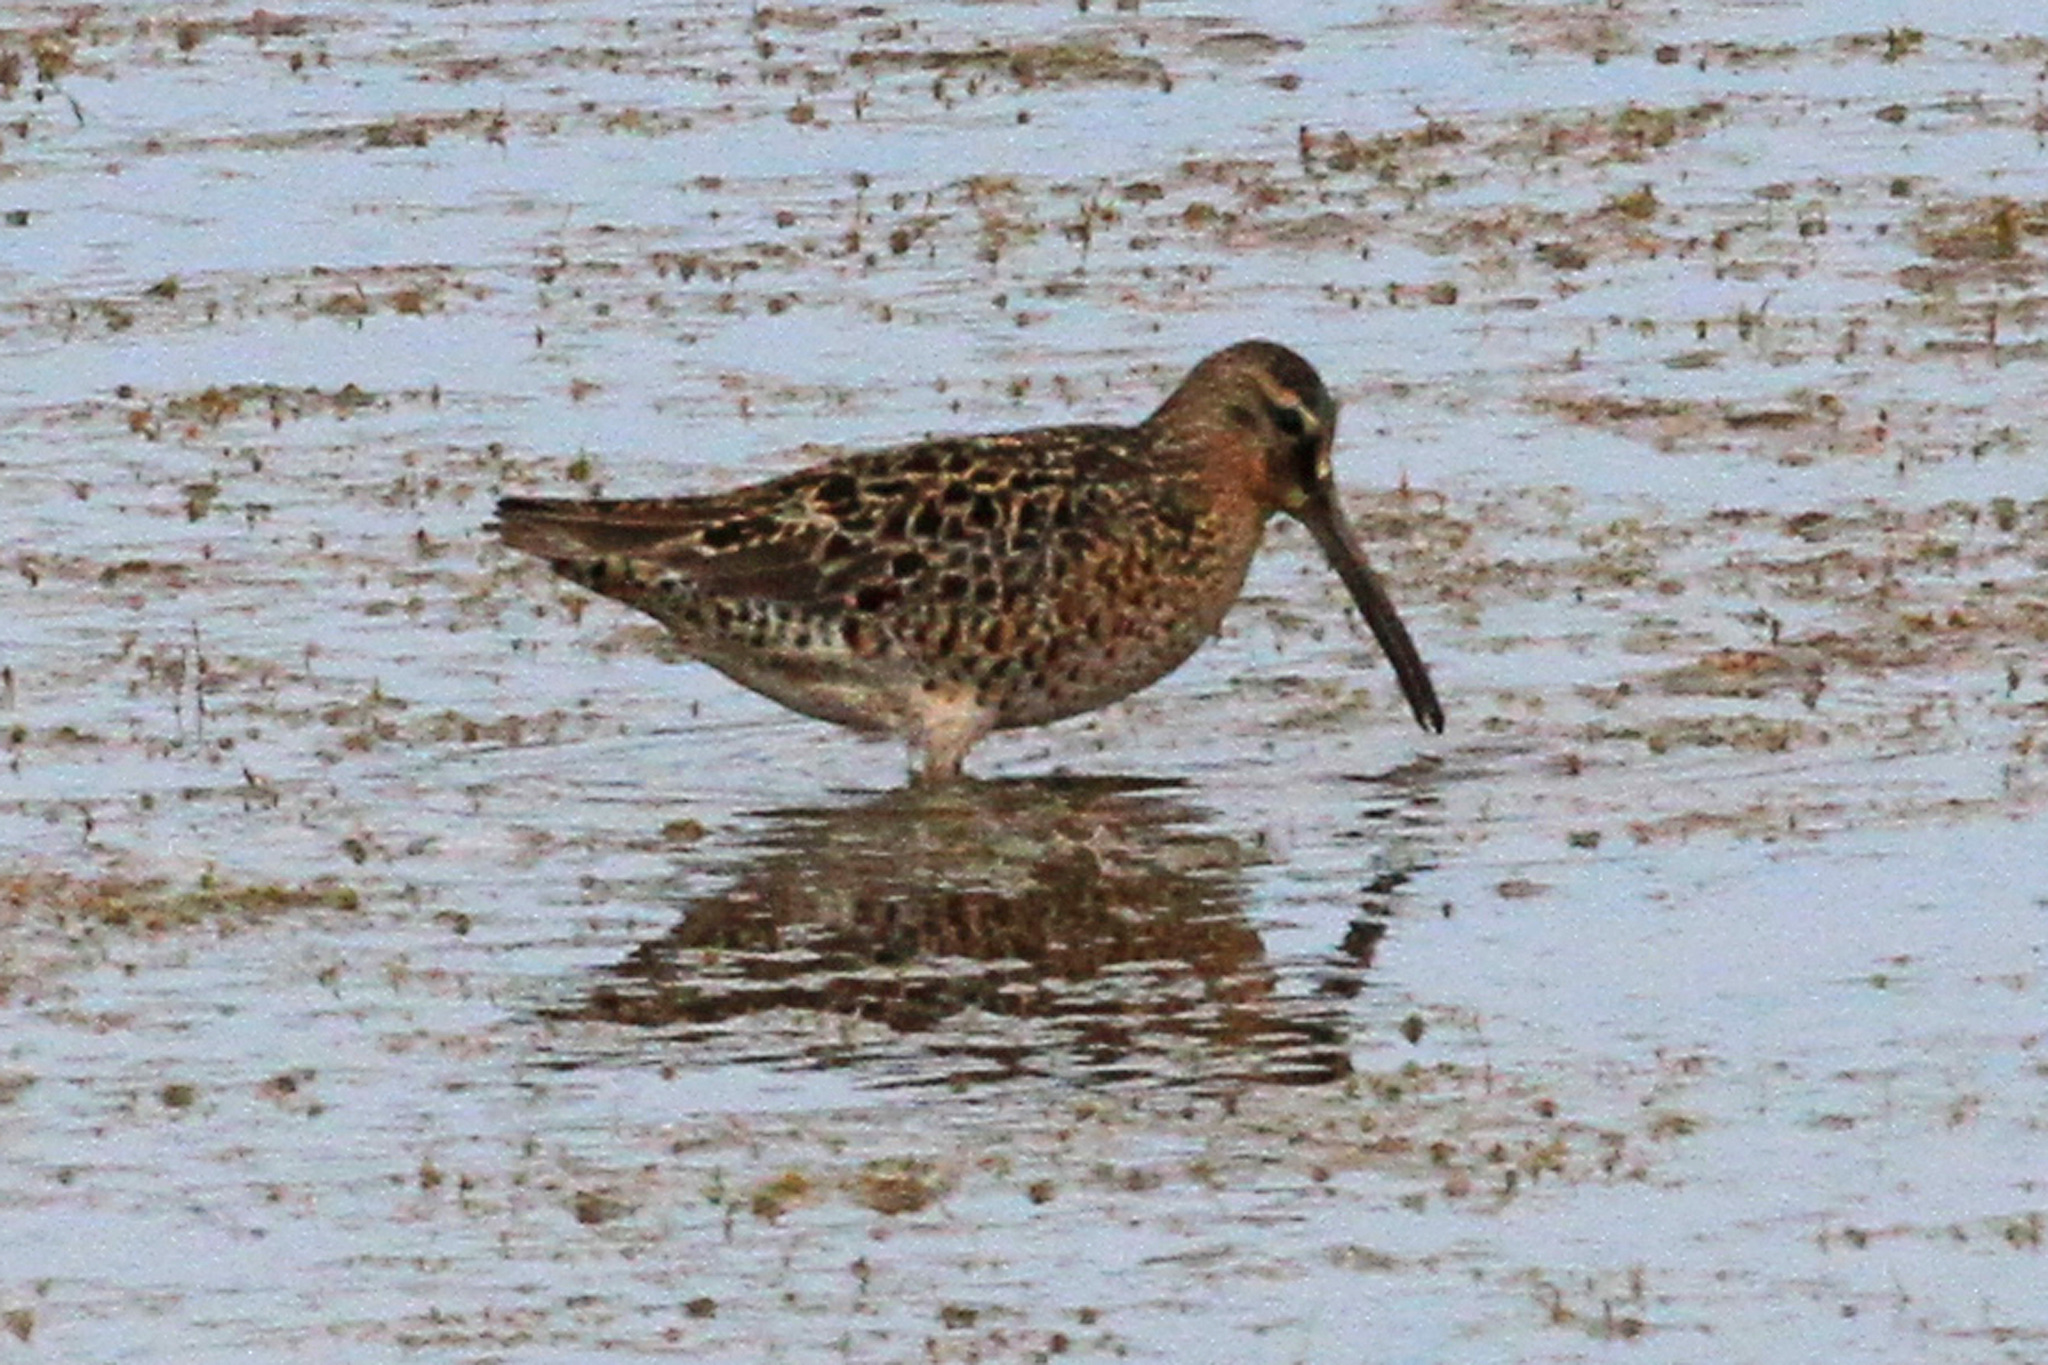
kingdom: Animalia
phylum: Chordata
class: Aves
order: Charadriiformes
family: Scolopacidae
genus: Limnodromus
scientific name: Limnodromus griseus
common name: Short-billed dowitcher
